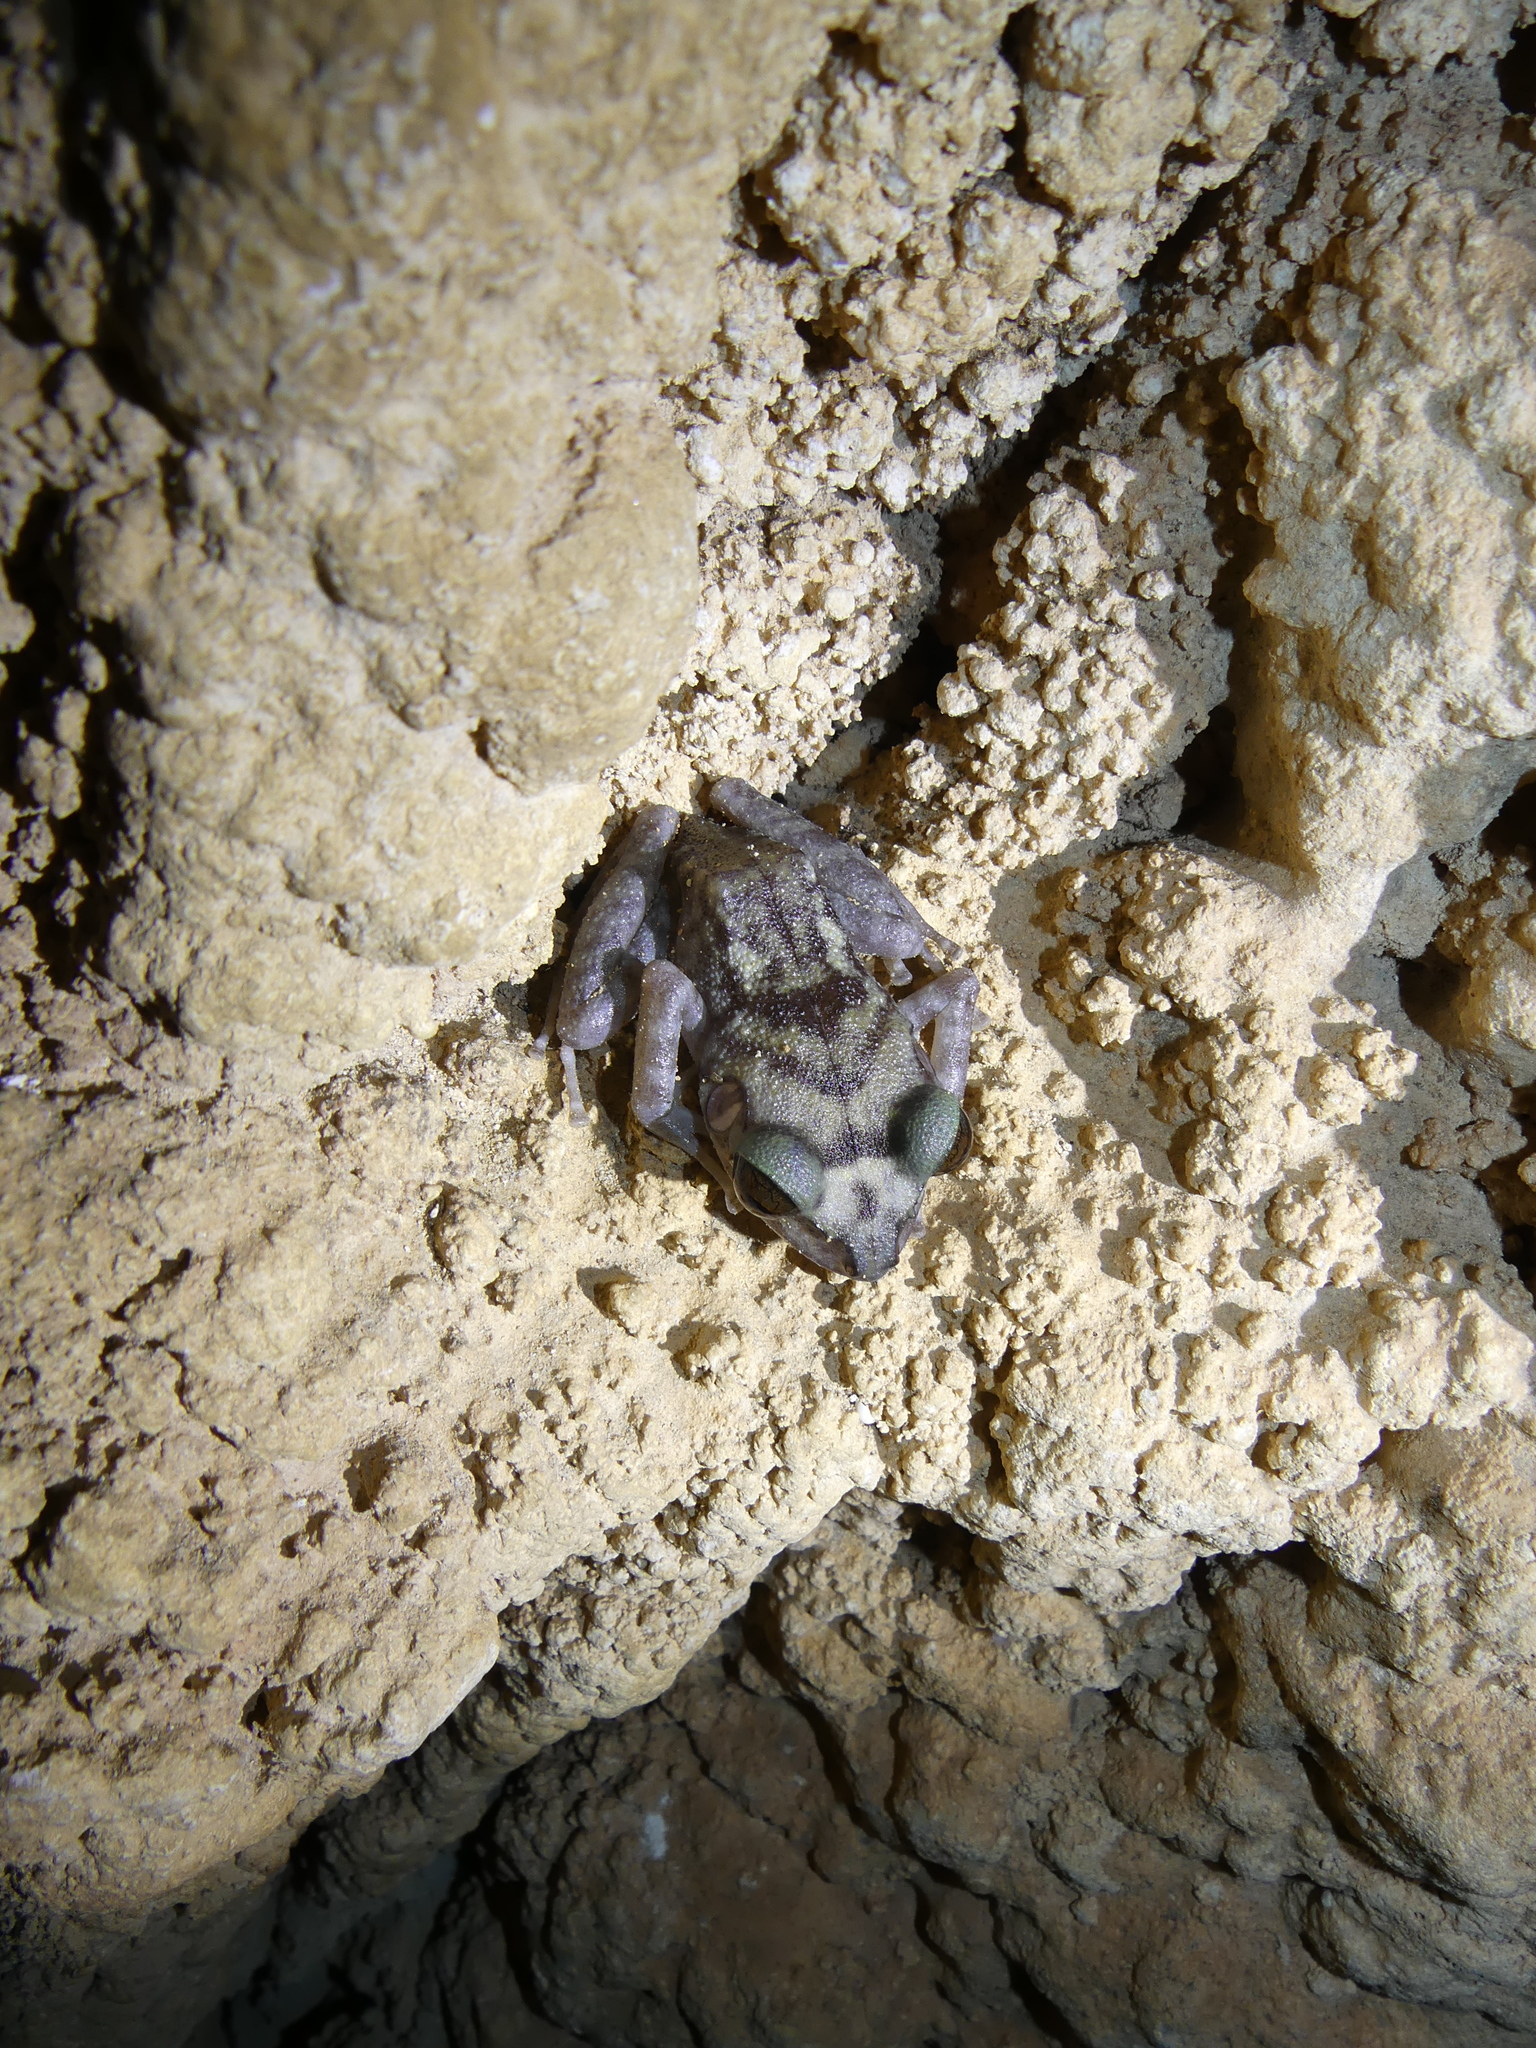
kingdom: Animalia
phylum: Chordata
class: Amphibia
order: Anura
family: Eleutherodactylidae
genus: Eleutherodactylus
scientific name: Eleutherodactylus zeus
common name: Cuban giant frog
